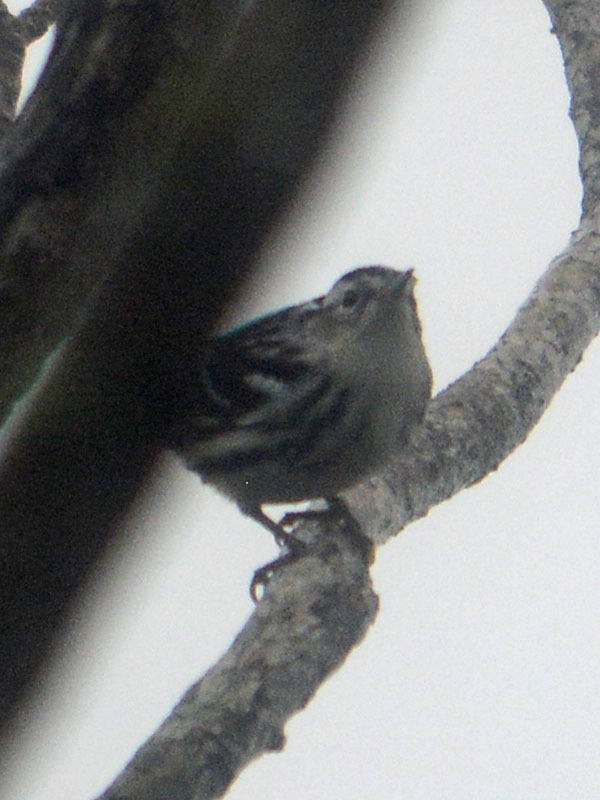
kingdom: Animalia
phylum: Chordata
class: Aves
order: Passeriformes
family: Parulidae
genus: Mniotilta
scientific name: Mniotilta varia
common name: Black-and-white warbler
